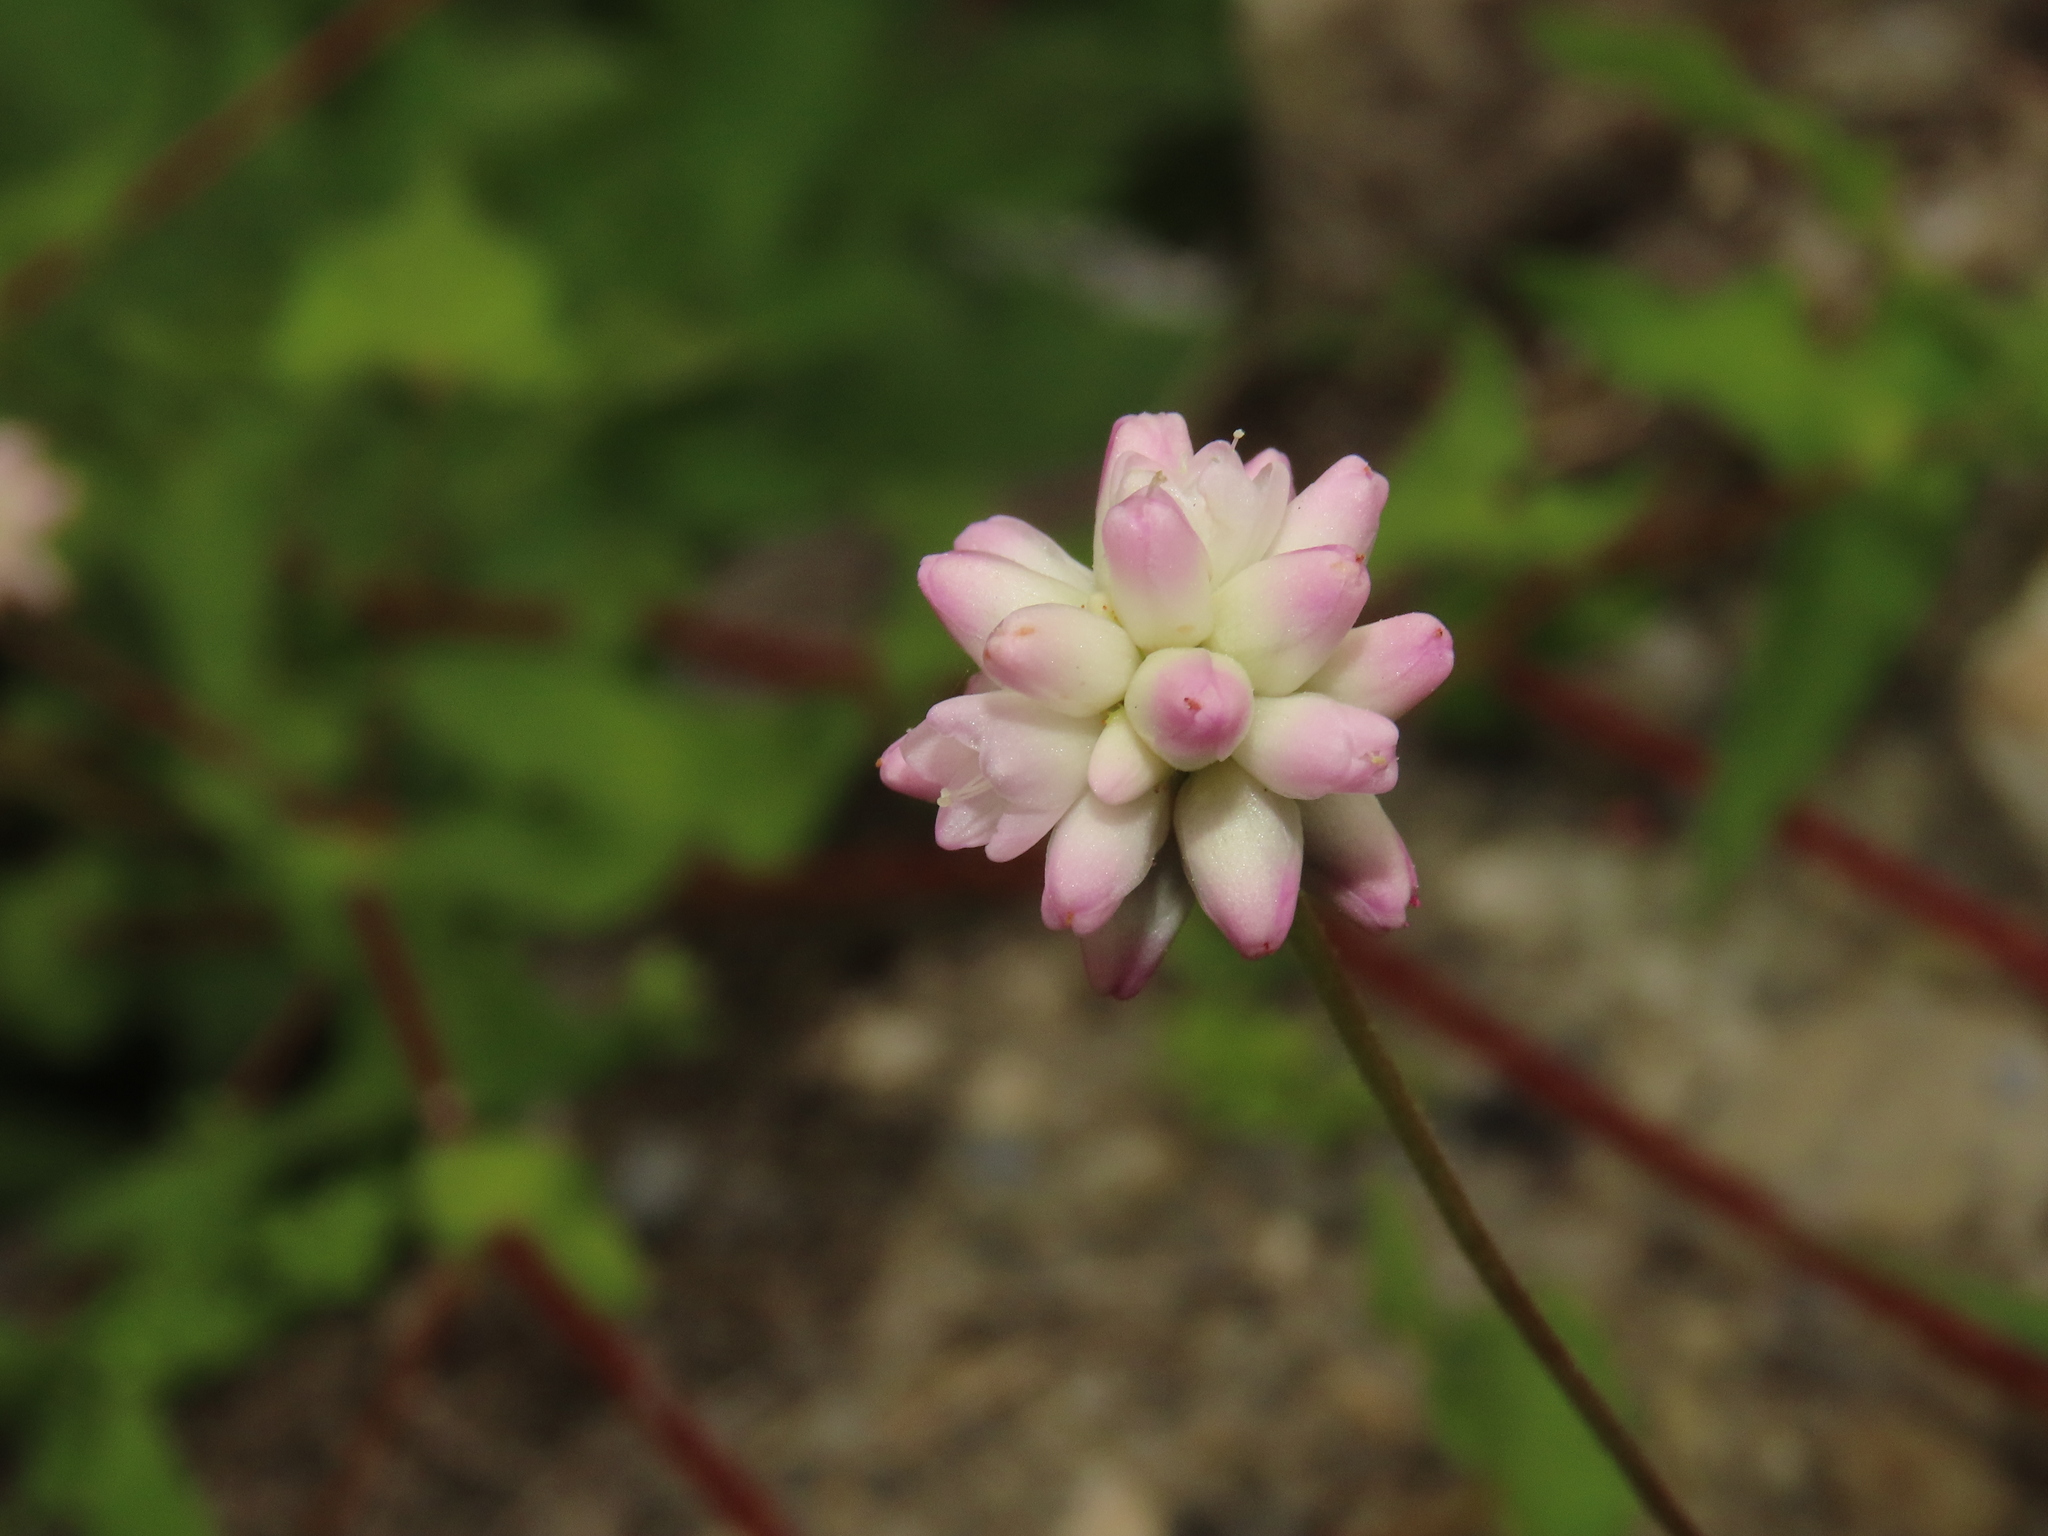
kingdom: Plantae
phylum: Tracheophyta
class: Magnoliopsida
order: Caryophyllales
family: Polygonaceae
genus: Persicaria
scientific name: Persicaria senticosa
